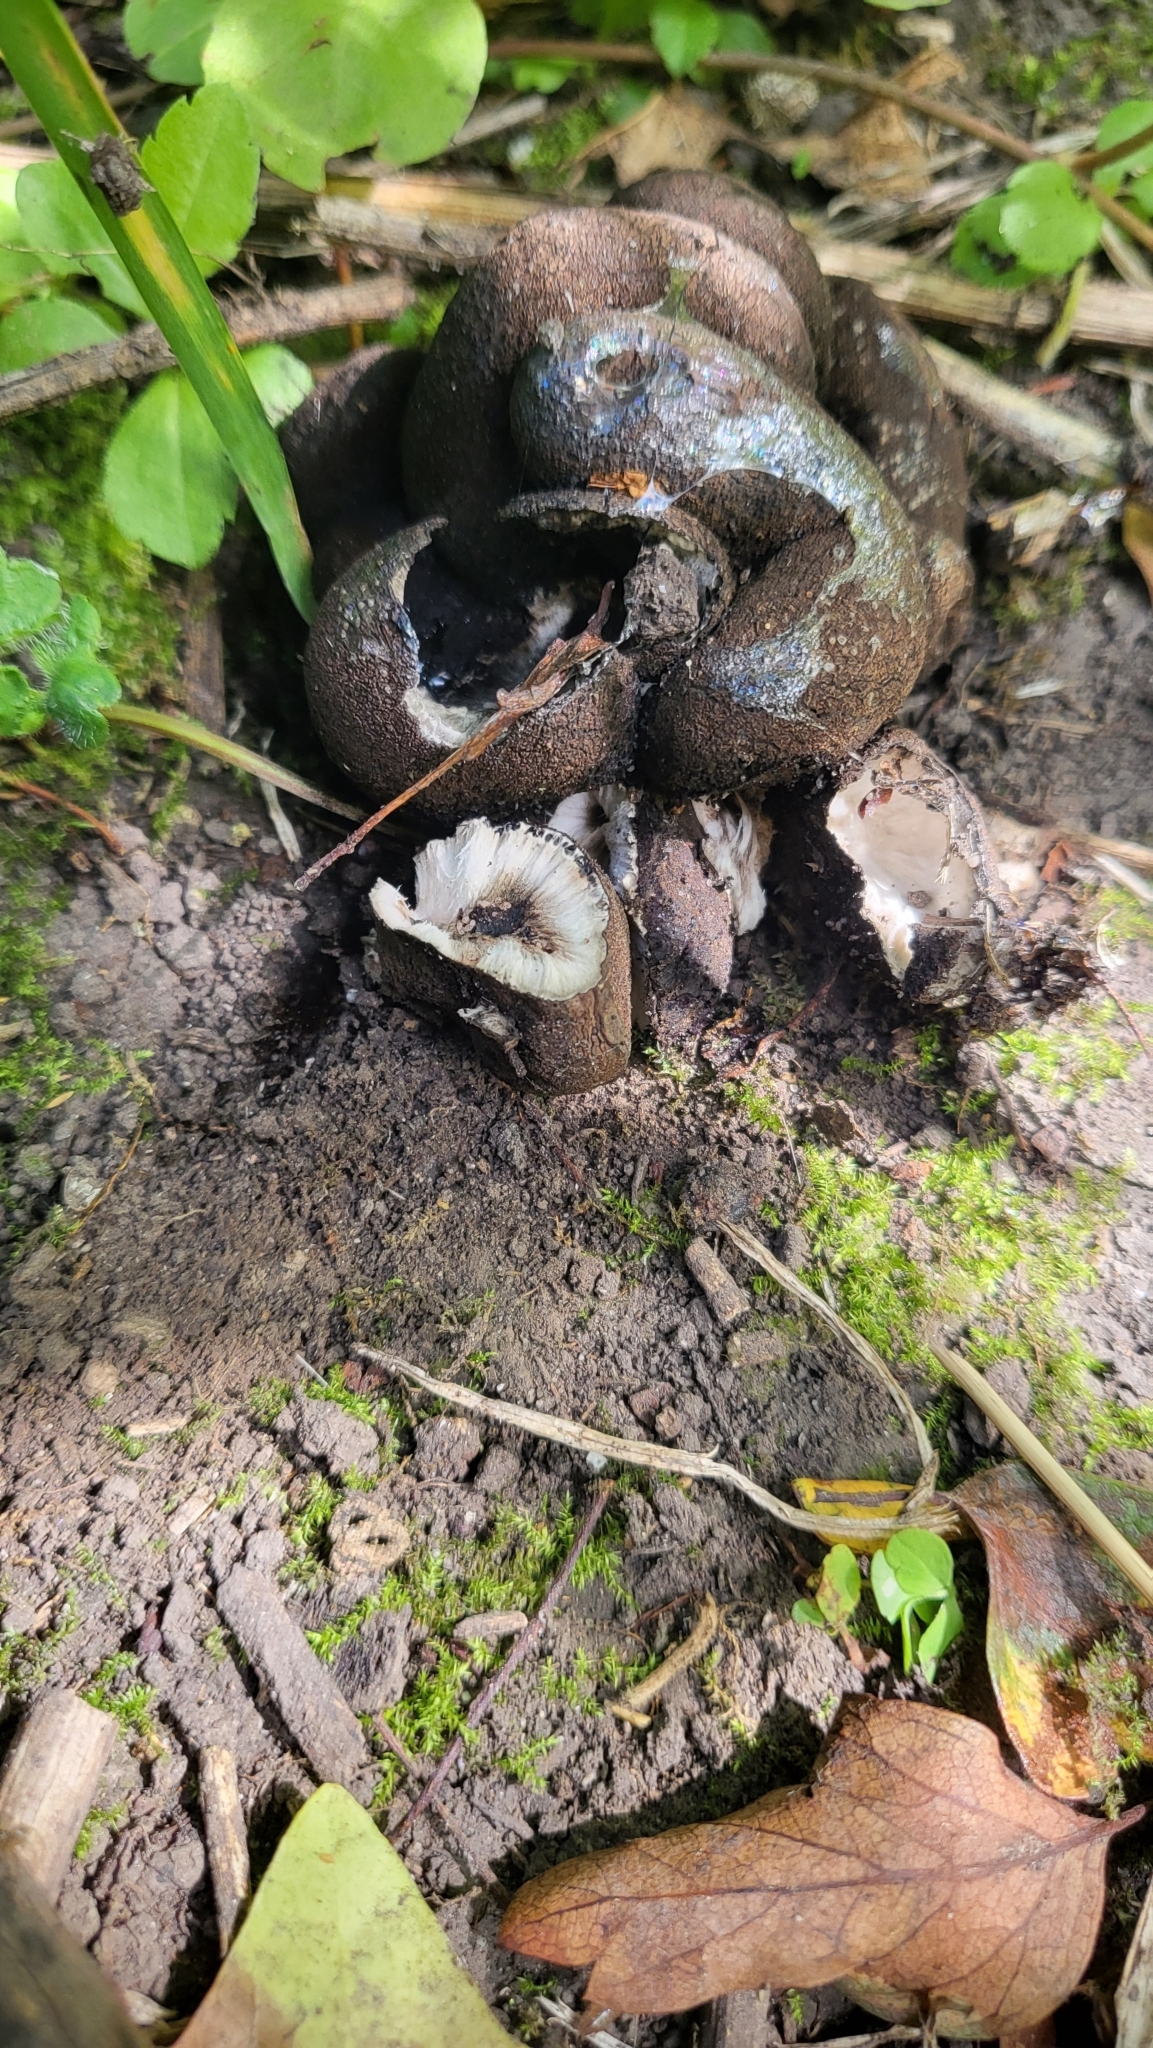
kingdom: Fungi
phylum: Ascomycota
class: Sordariomycetes
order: Xylariales
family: Xylariaceae
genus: Xylaria
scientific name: Xylaria polymorpha
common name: Dead man's fingers
